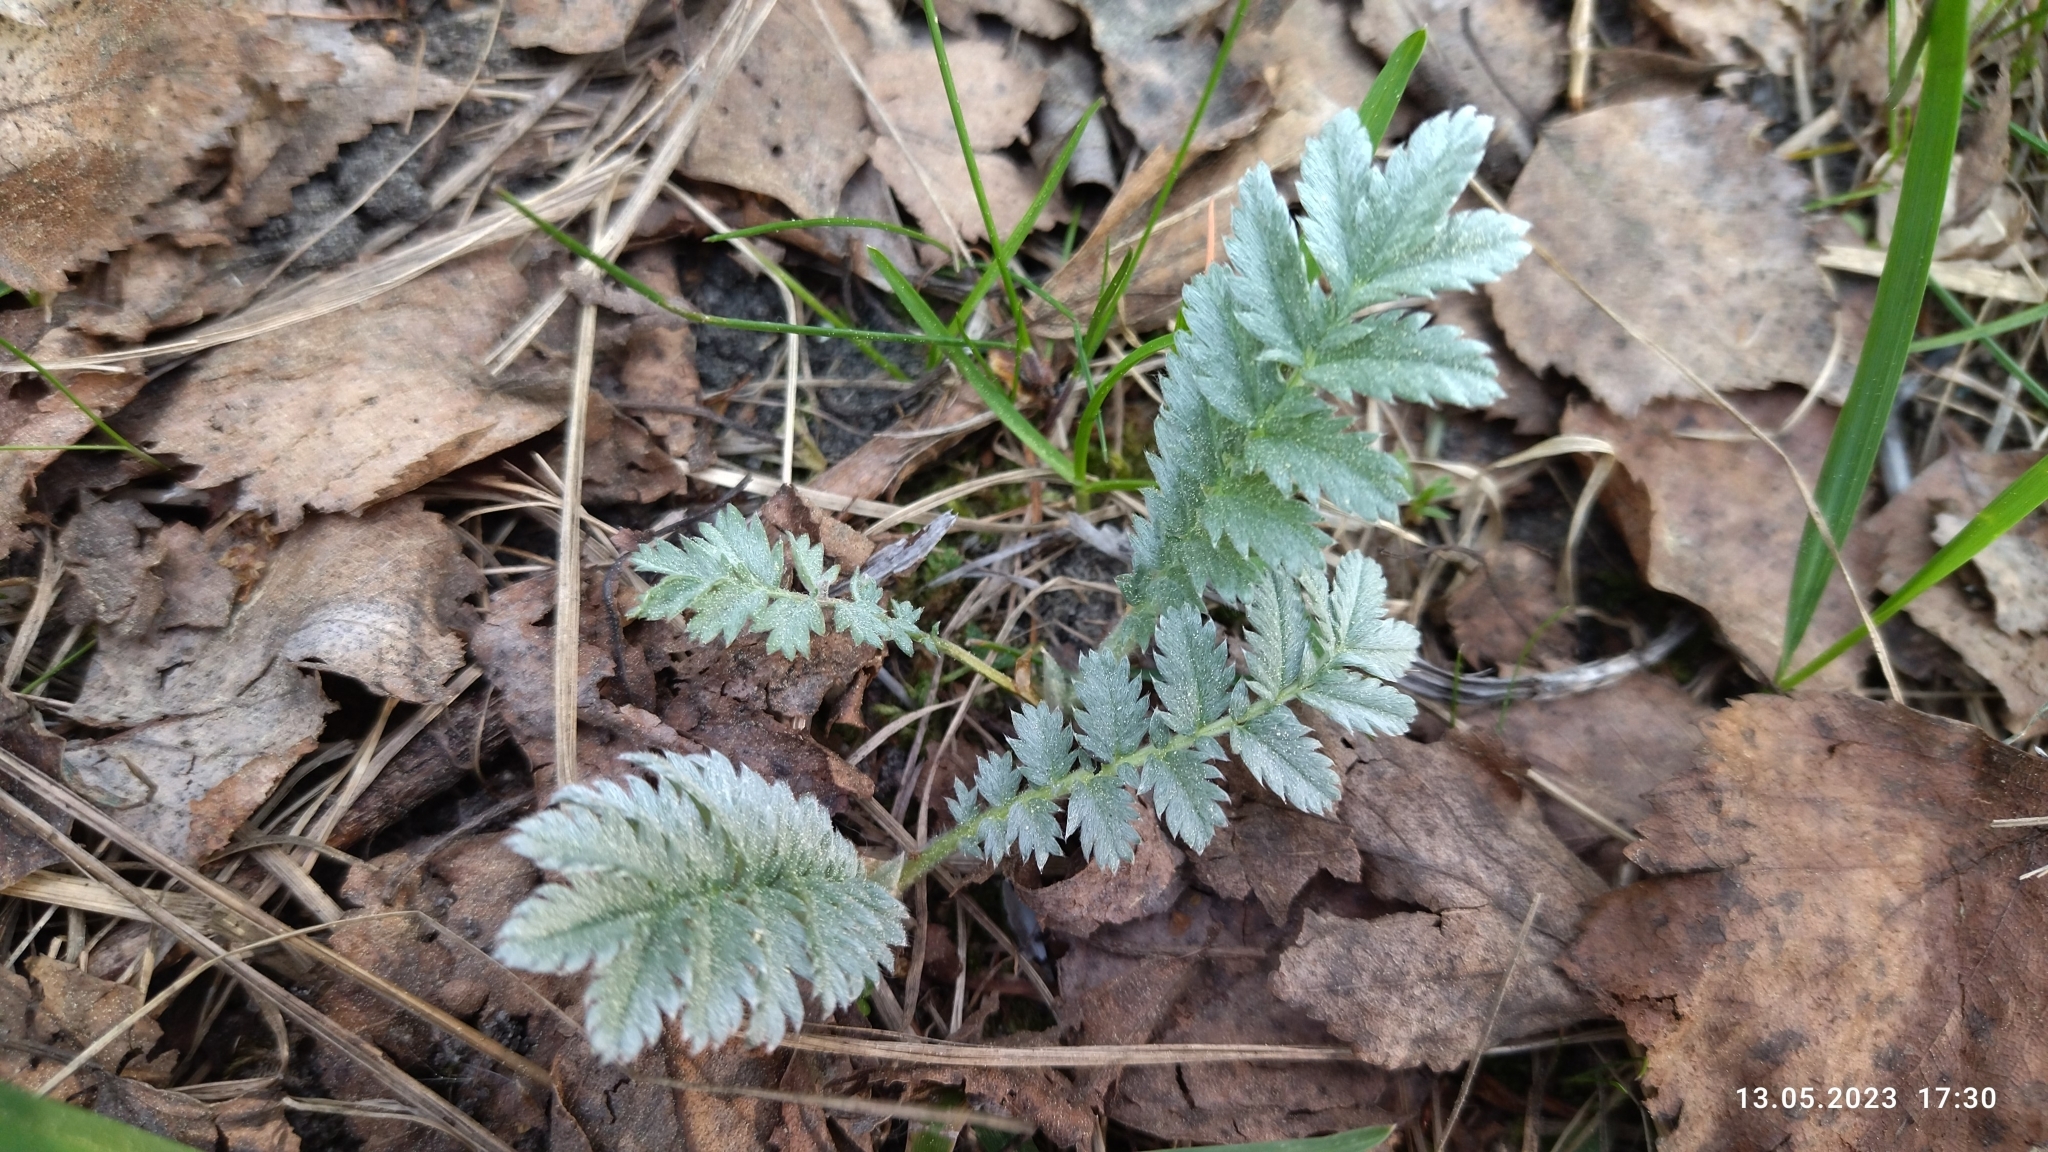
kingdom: Plantae
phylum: Tracheophyta
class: Magnoliopsida
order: Rosales
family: Rosaceae
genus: Argentina
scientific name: Argentina anserina
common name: Common silverweed
